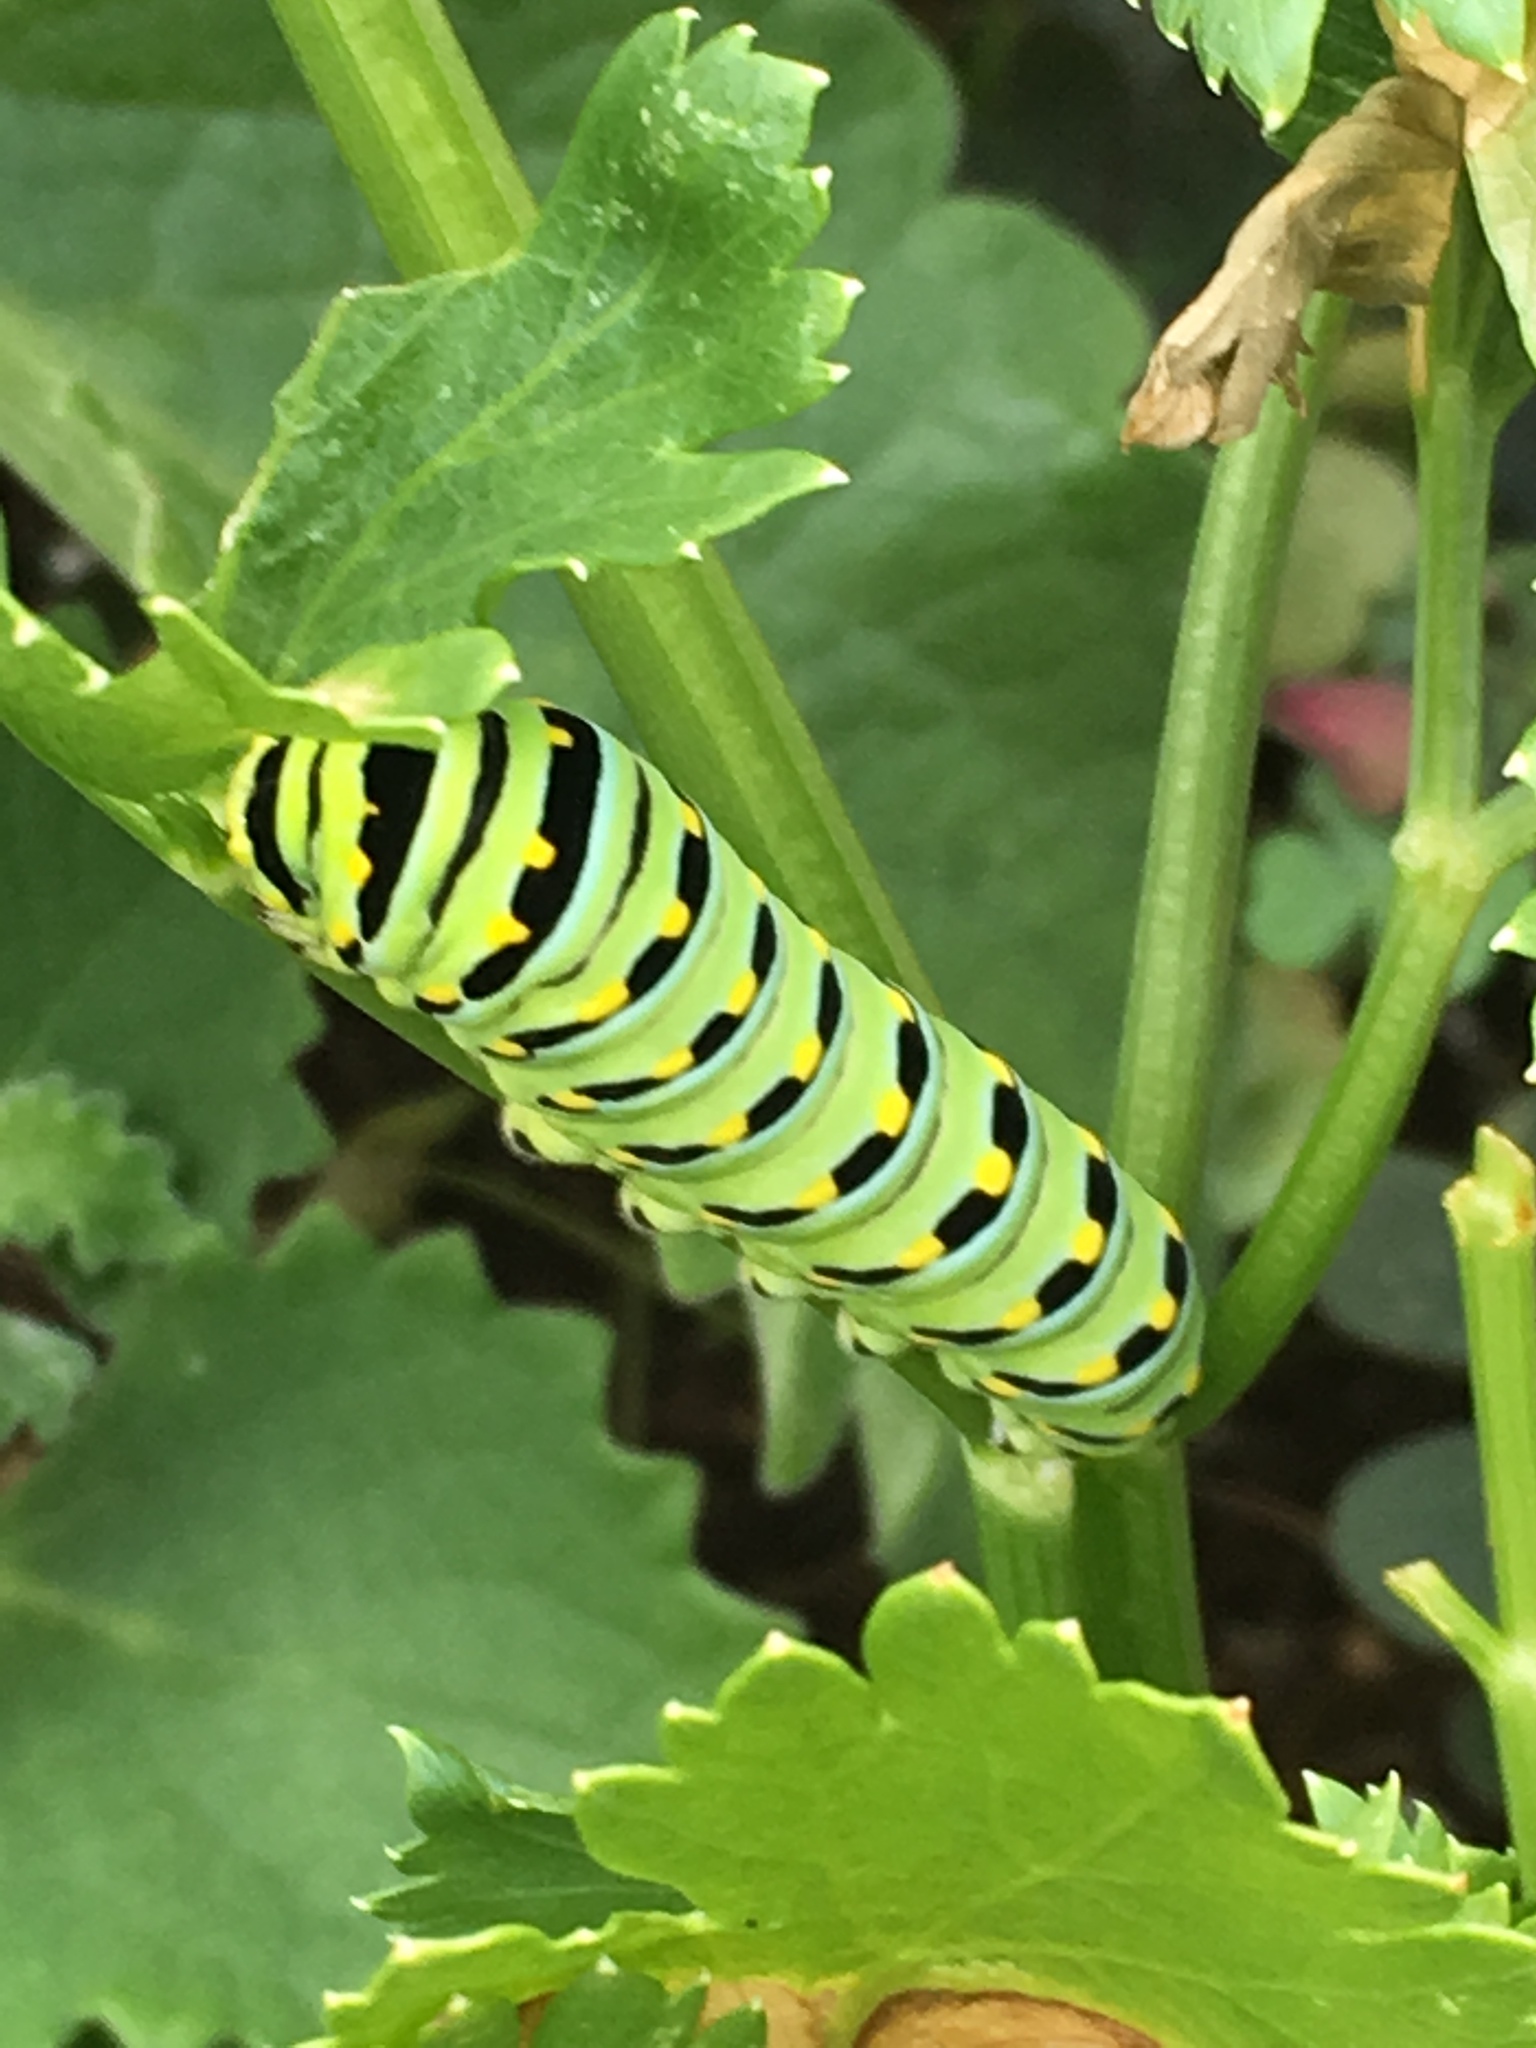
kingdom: Animalia
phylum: Arthropoda
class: Insecta
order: Lepidoptera
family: Papilionidae
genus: Papilio
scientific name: Papilio polyxenes
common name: Black swallowtail
